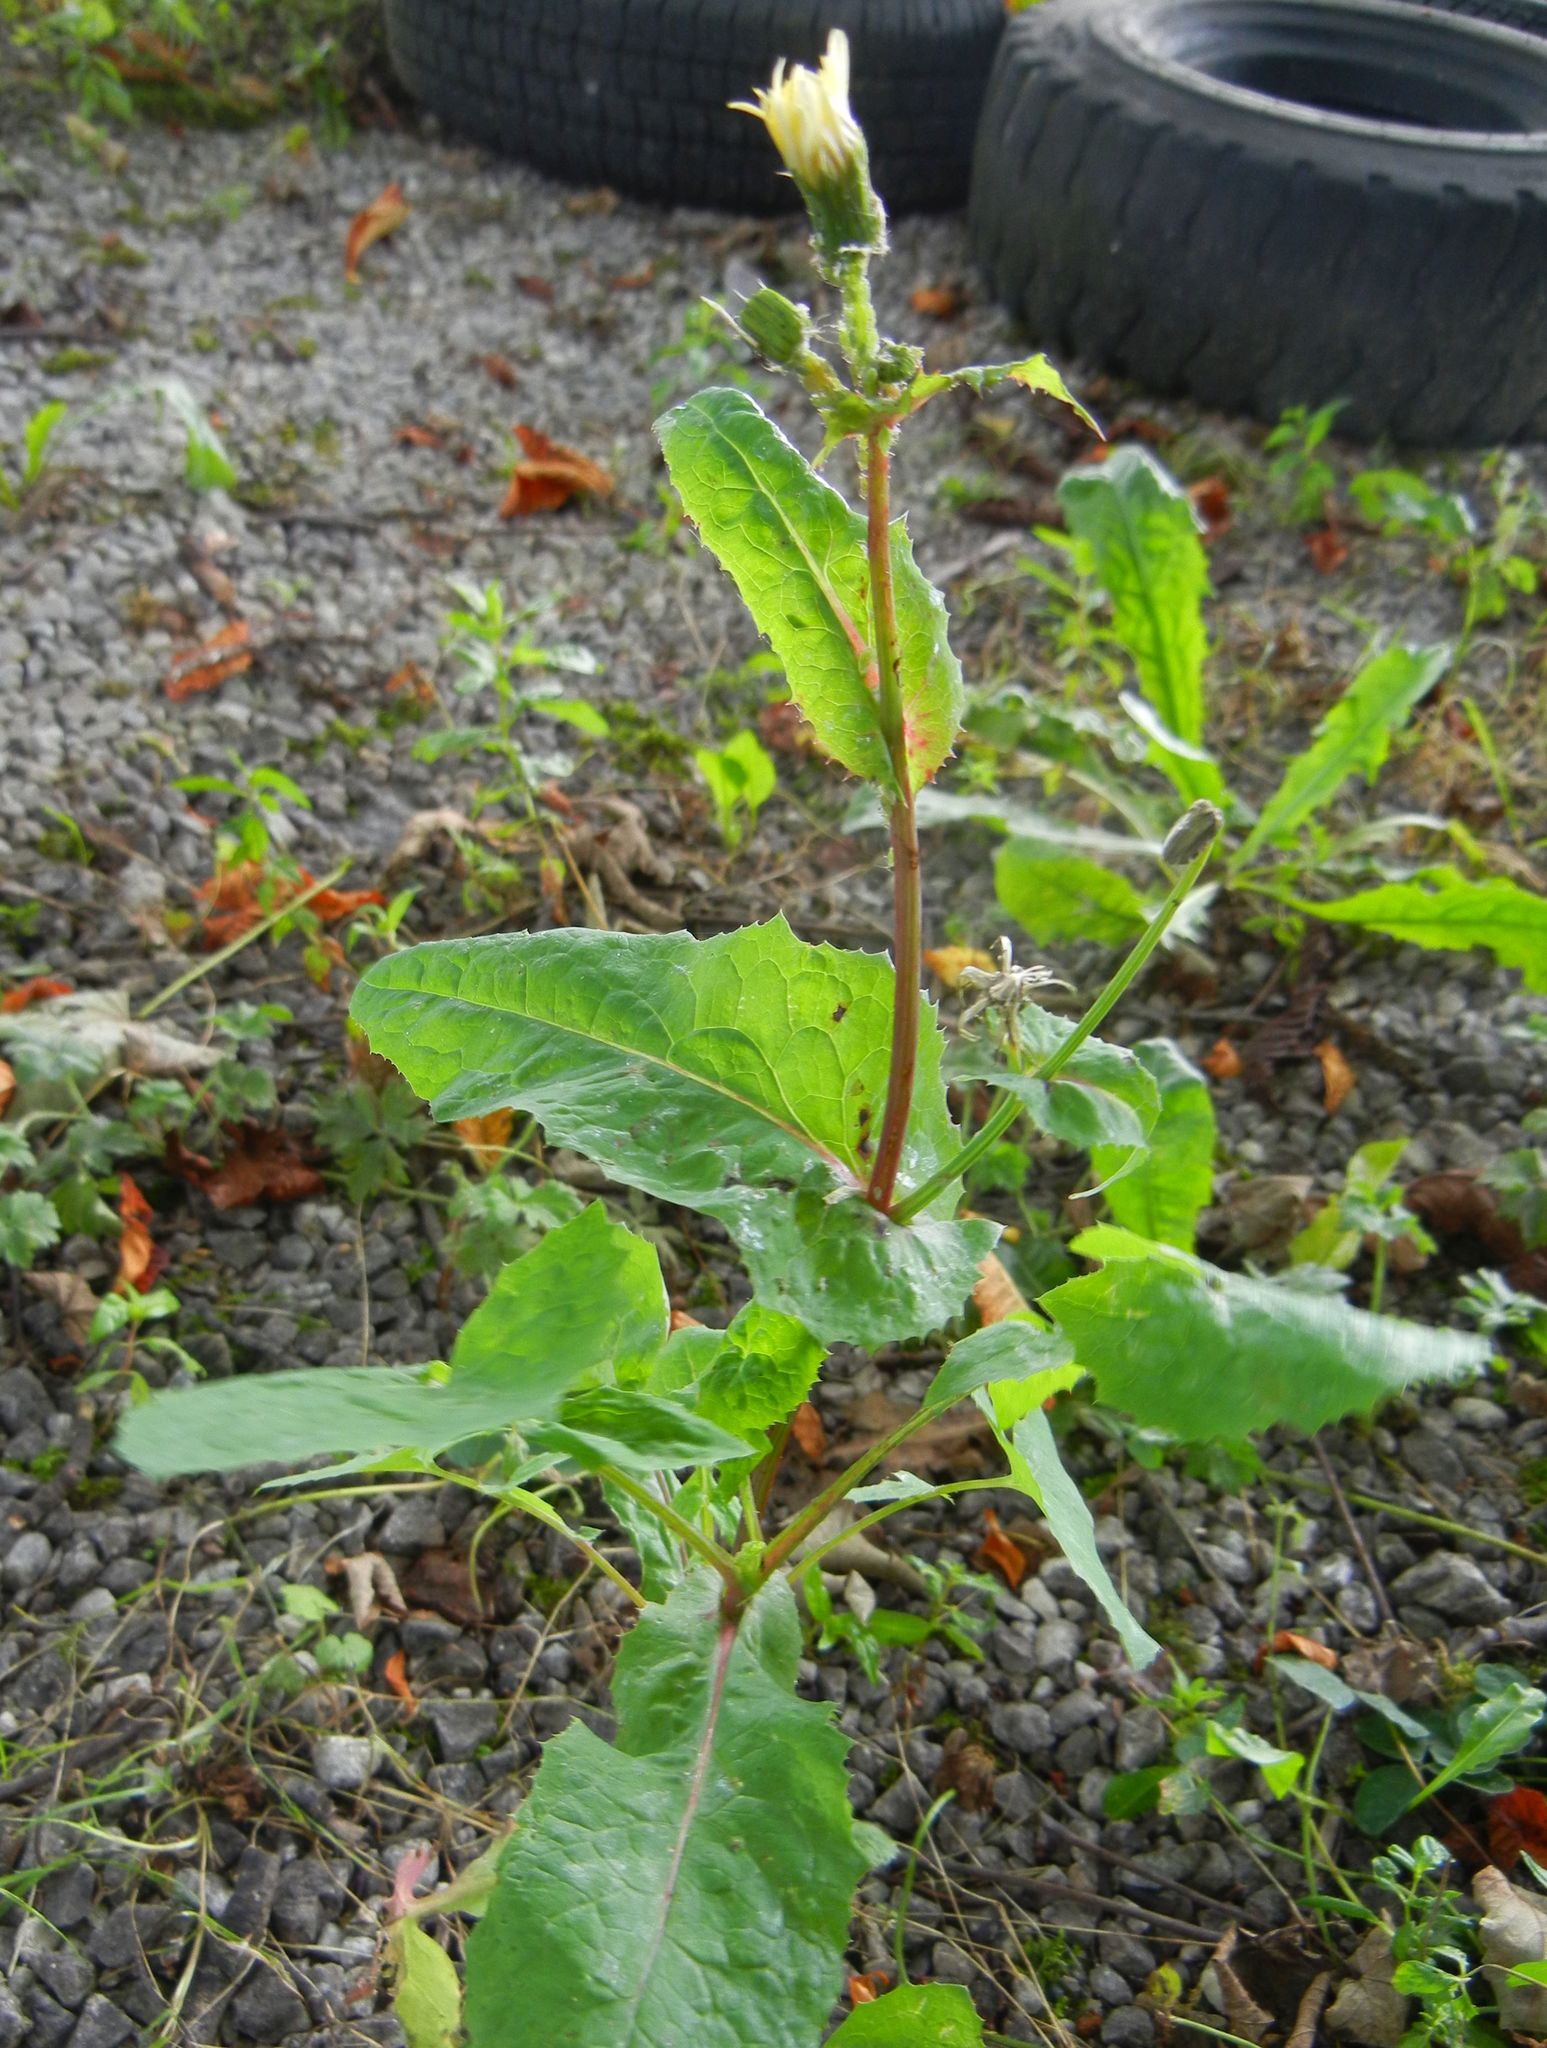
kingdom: Plantae
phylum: Tracheophyta
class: Magnoliopsida
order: Asterales
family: Asteraceae
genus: Sonchus
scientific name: Sonchus oleraceus
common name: Common sowthistle
